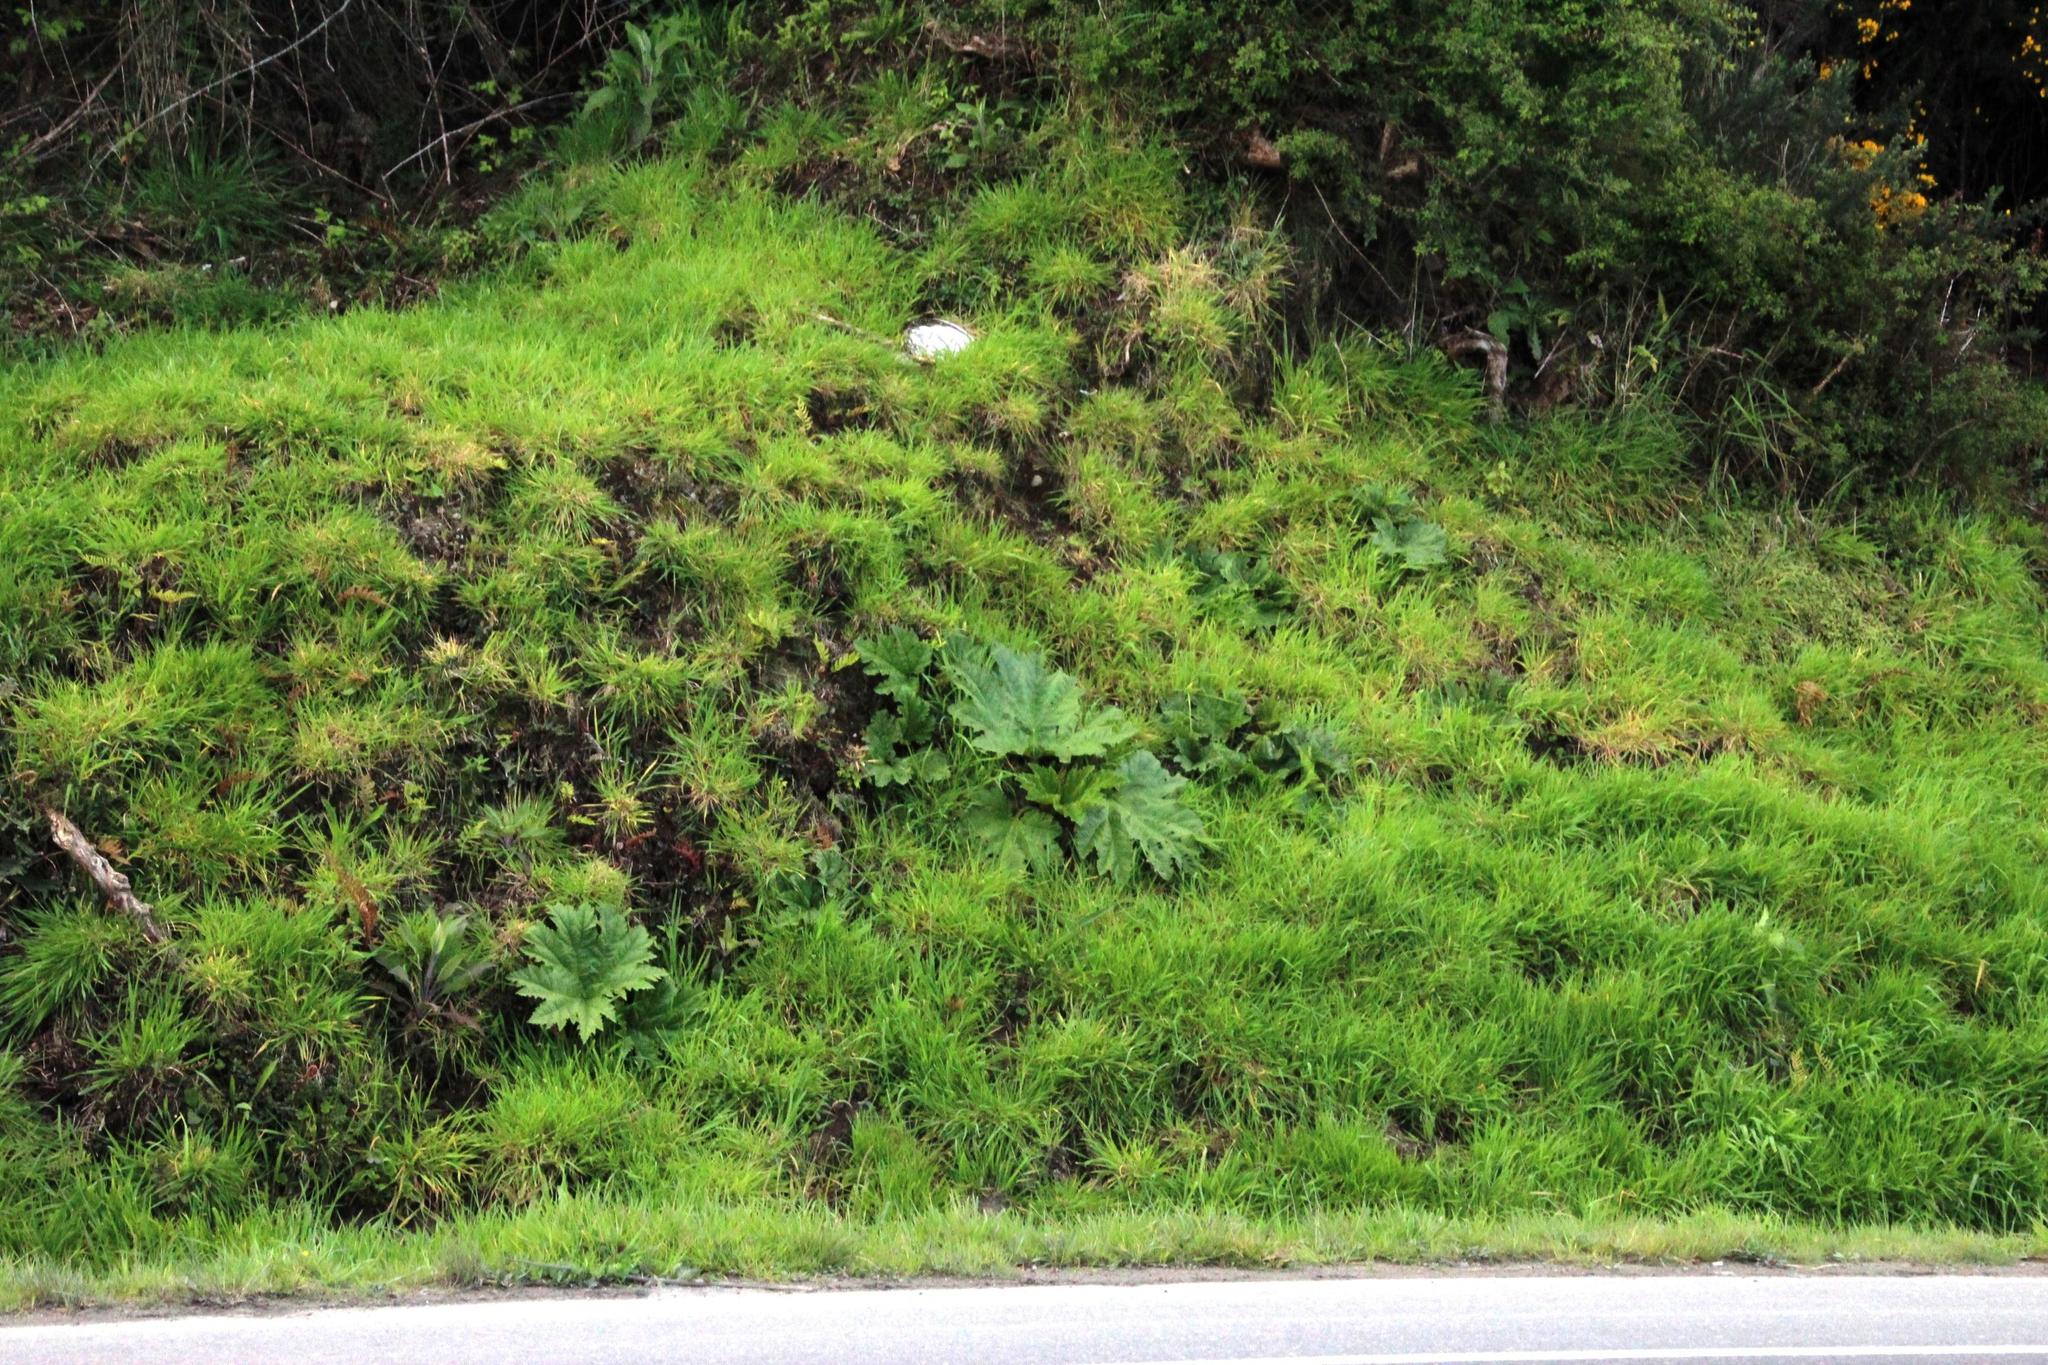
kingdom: Plantae
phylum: Tracheophyta
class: Magnoliopsida
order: Gunnerales
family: Gunneraceae
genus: Gunnera
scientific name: Gunnera tinctoria
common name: Giant-rhubarb
